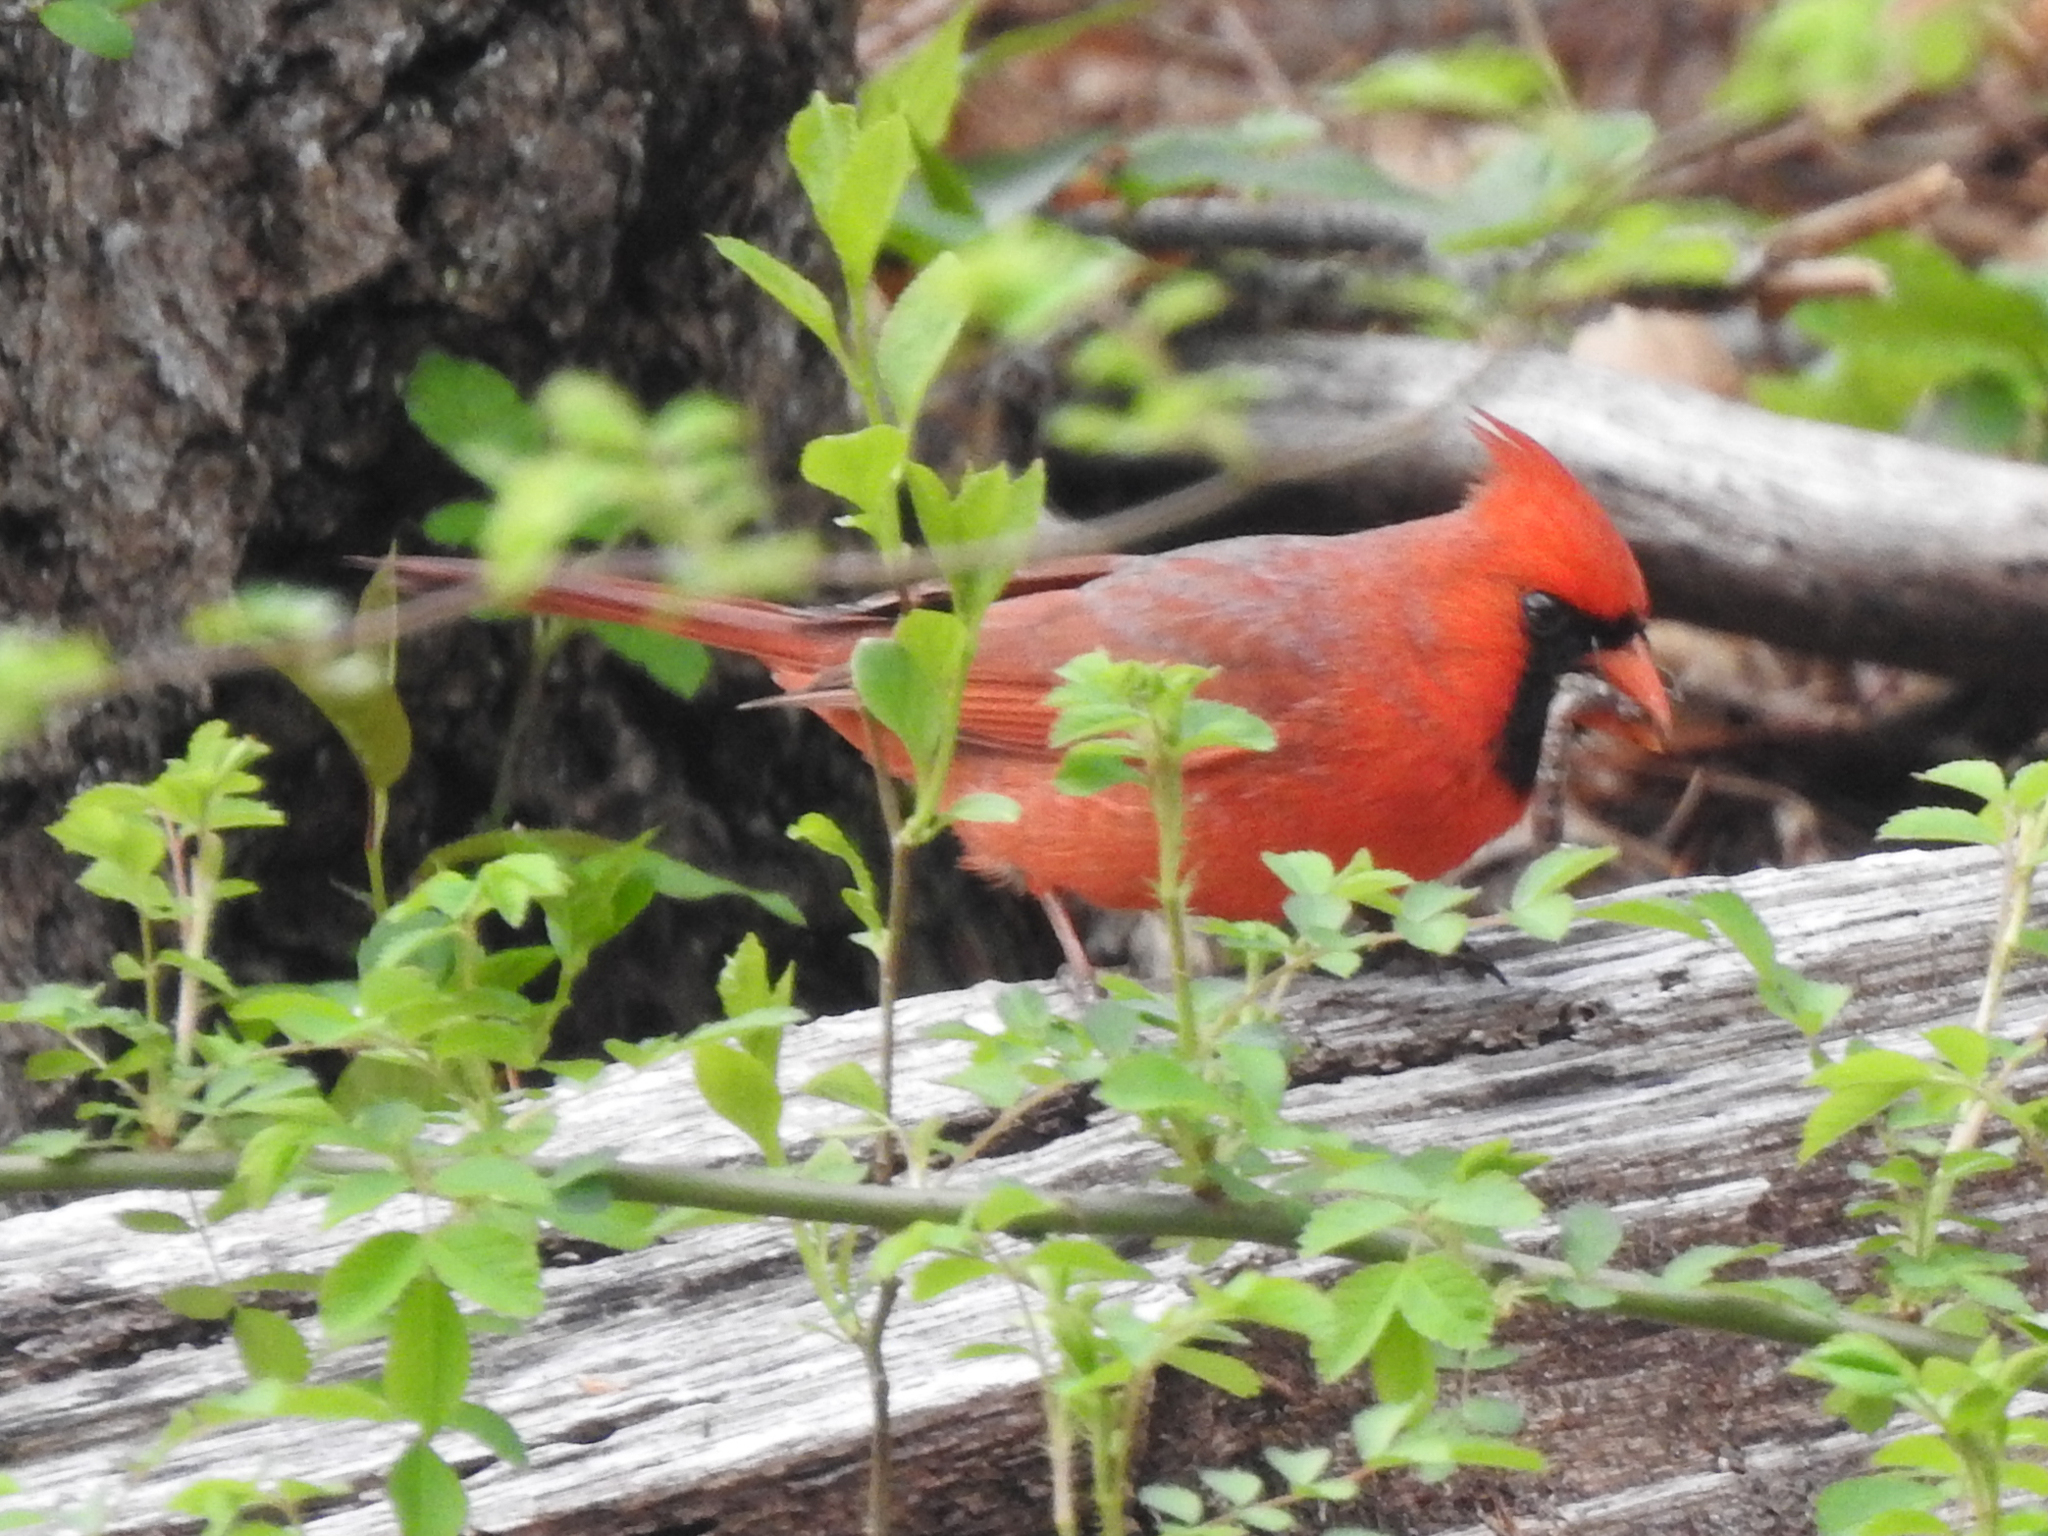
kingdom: Animalia
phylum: Chordata
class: Aves
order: Passeriformes
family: Cardinalidae
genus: Cardinalis
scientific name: Cardinalis cardinalis
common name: Northern cardinal
